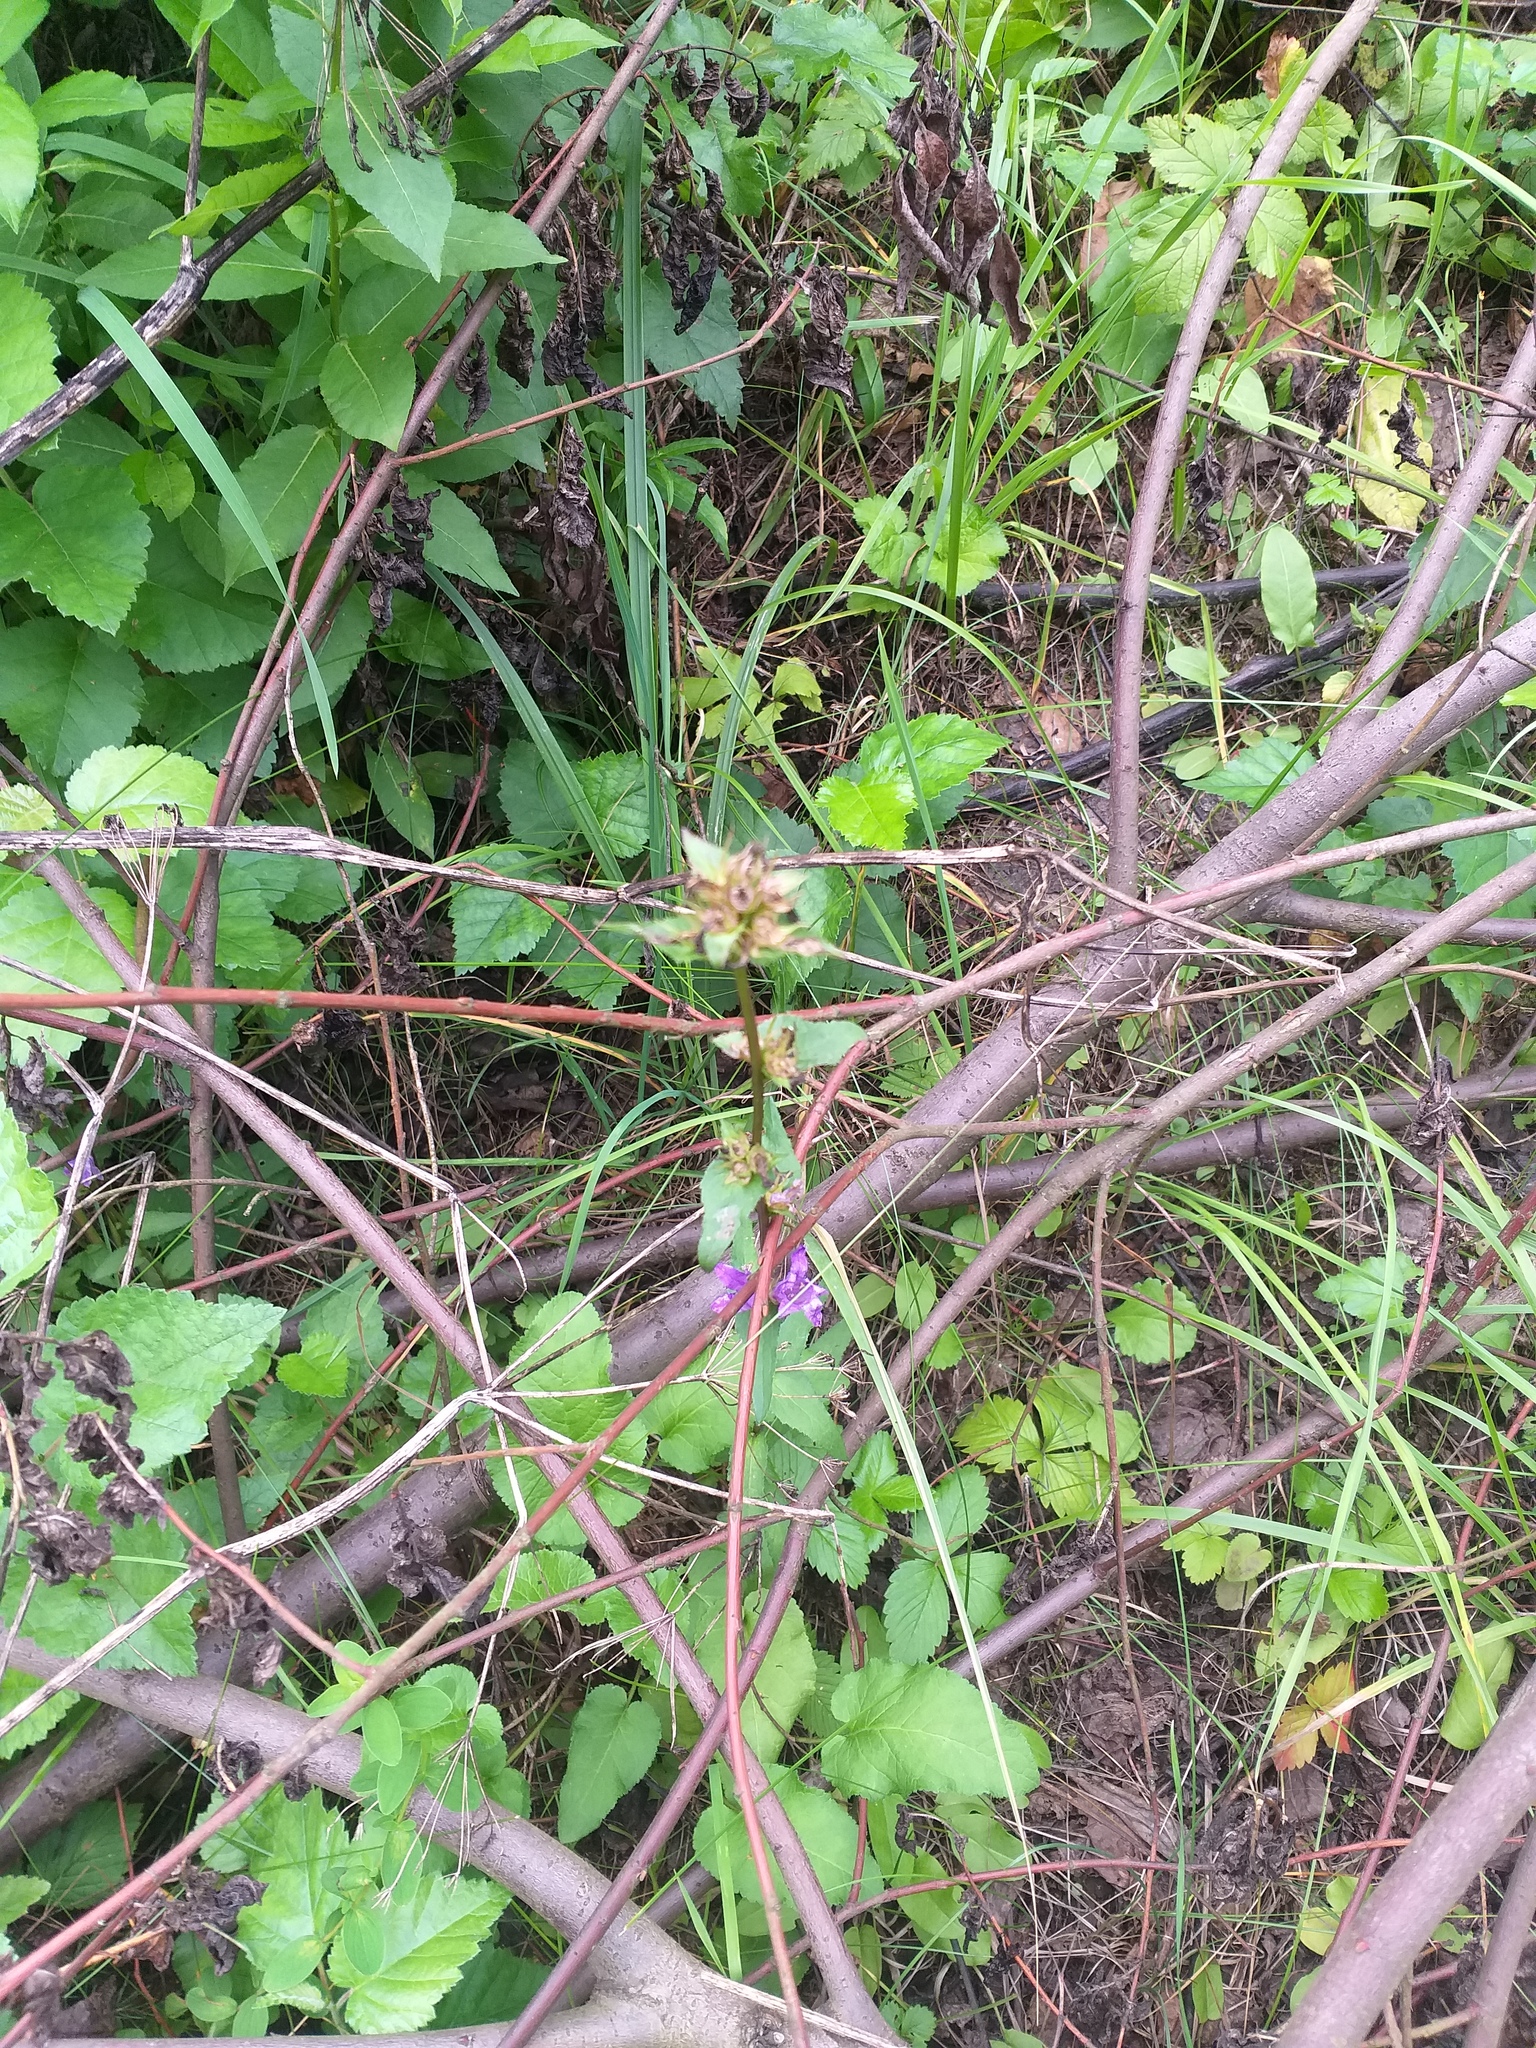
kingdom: Plantae
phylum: Tracheophyta
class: Magnoliopsida
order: Asterales
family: Campanulaceae
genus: Campanula
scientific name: Campanula glomerata
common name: Clustered bellflower
